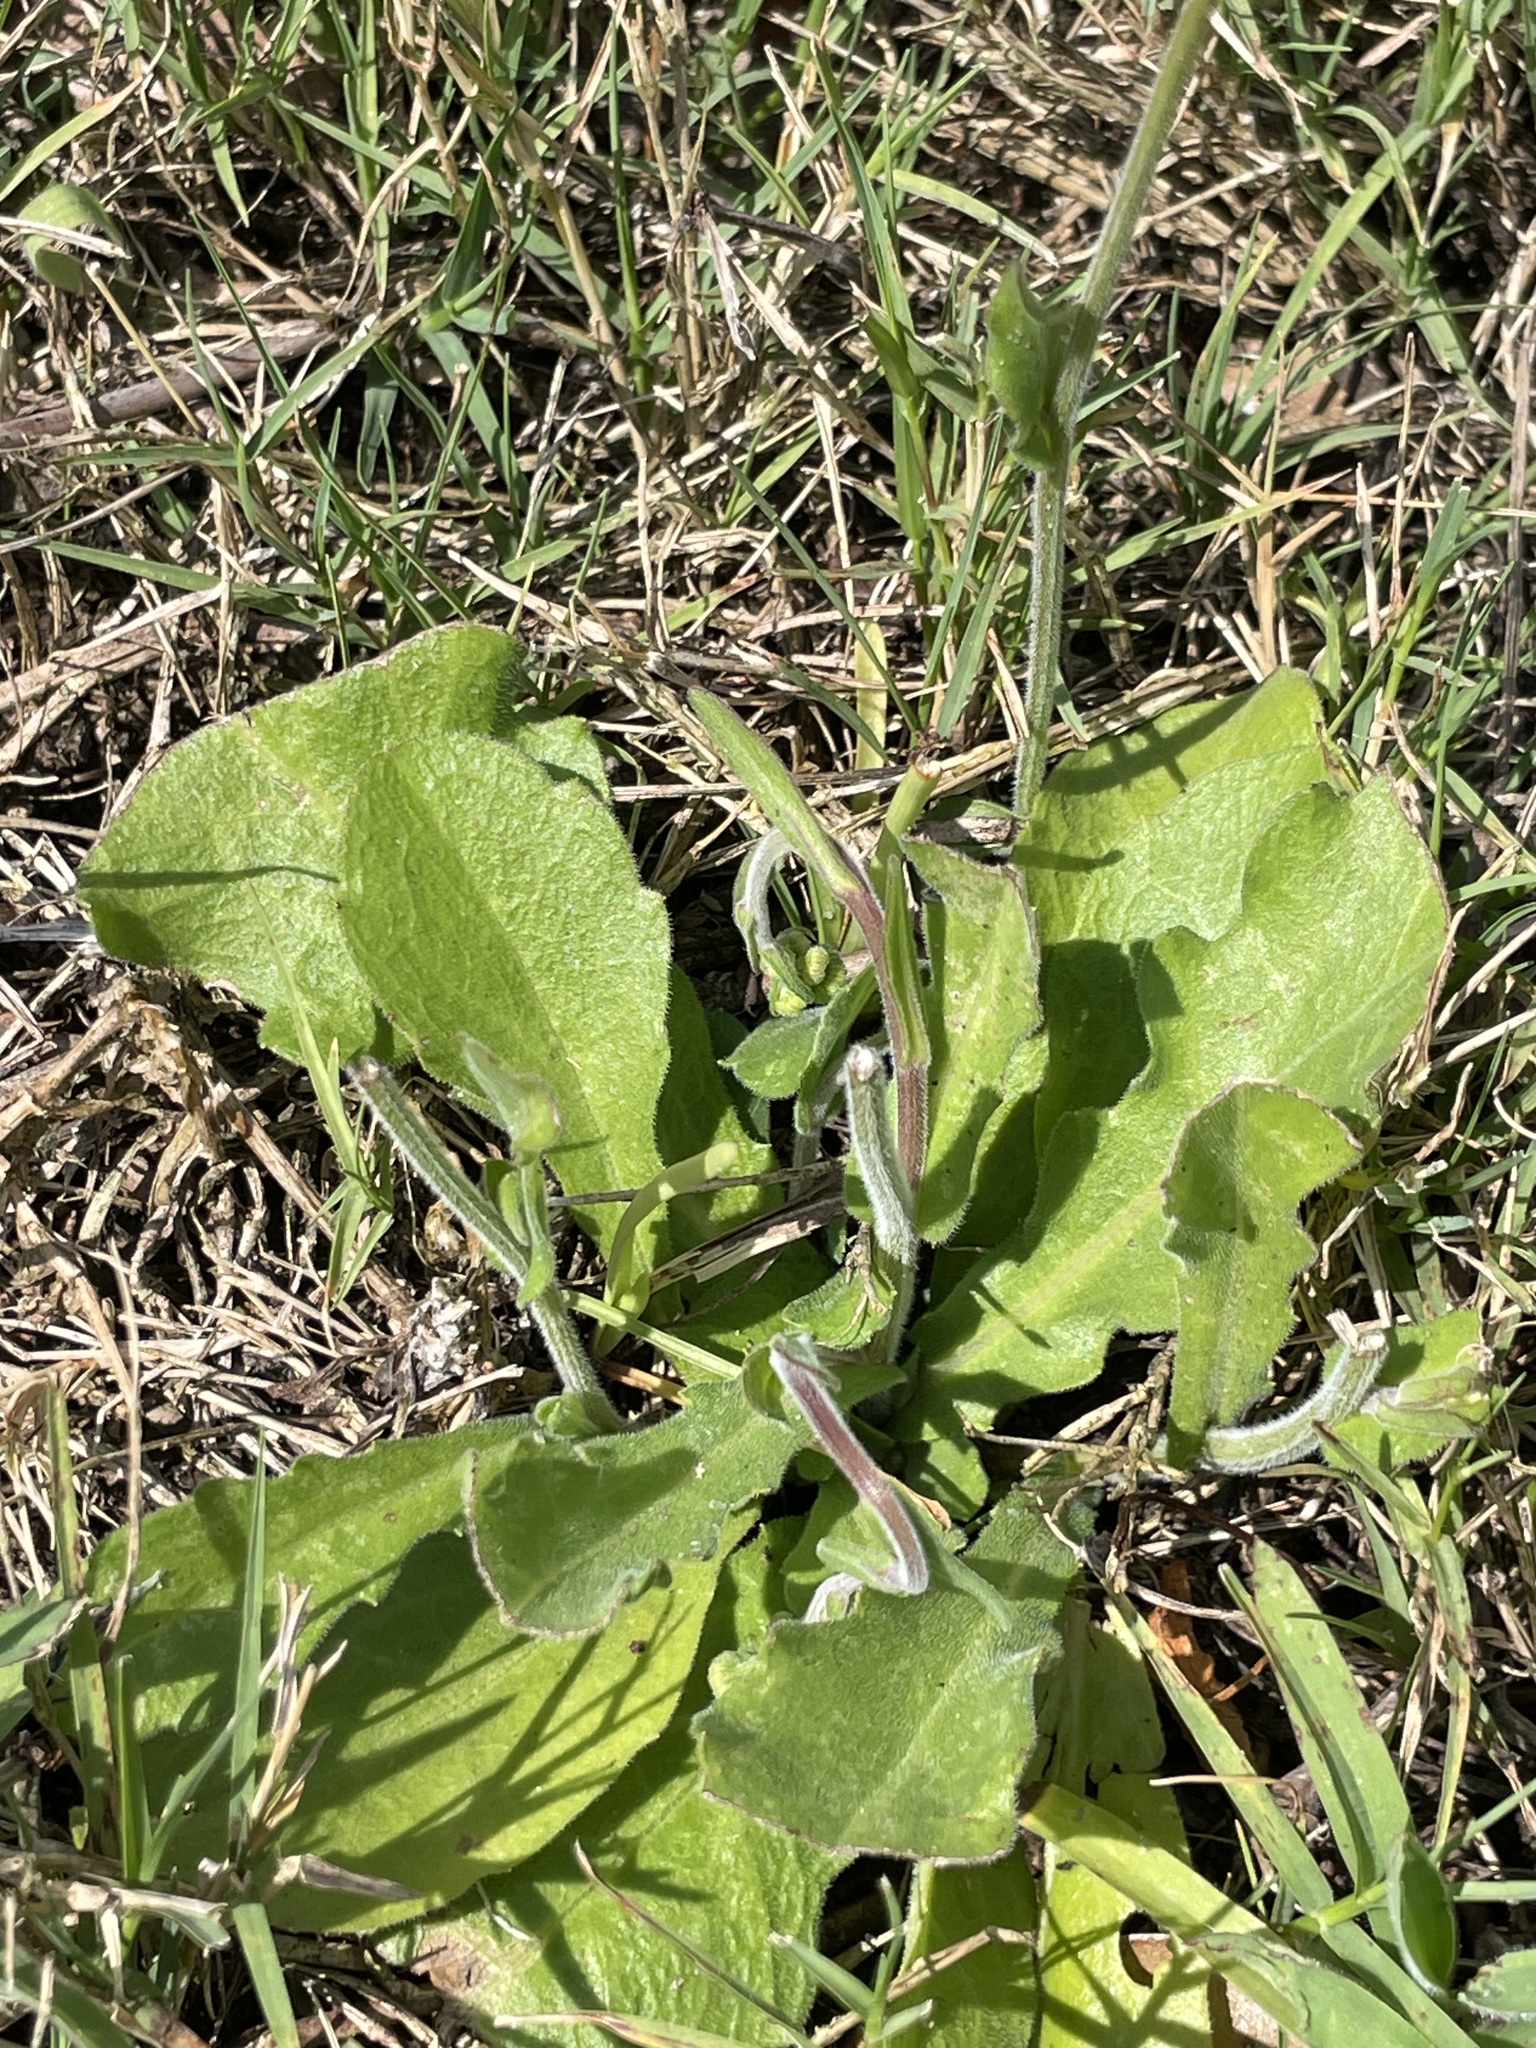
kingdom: Plantae
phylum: Tracheophyta
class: Magnoliopsida
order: Asterales
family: Asteraceae
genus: Erigeron
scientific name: Erigeron quercifolius
